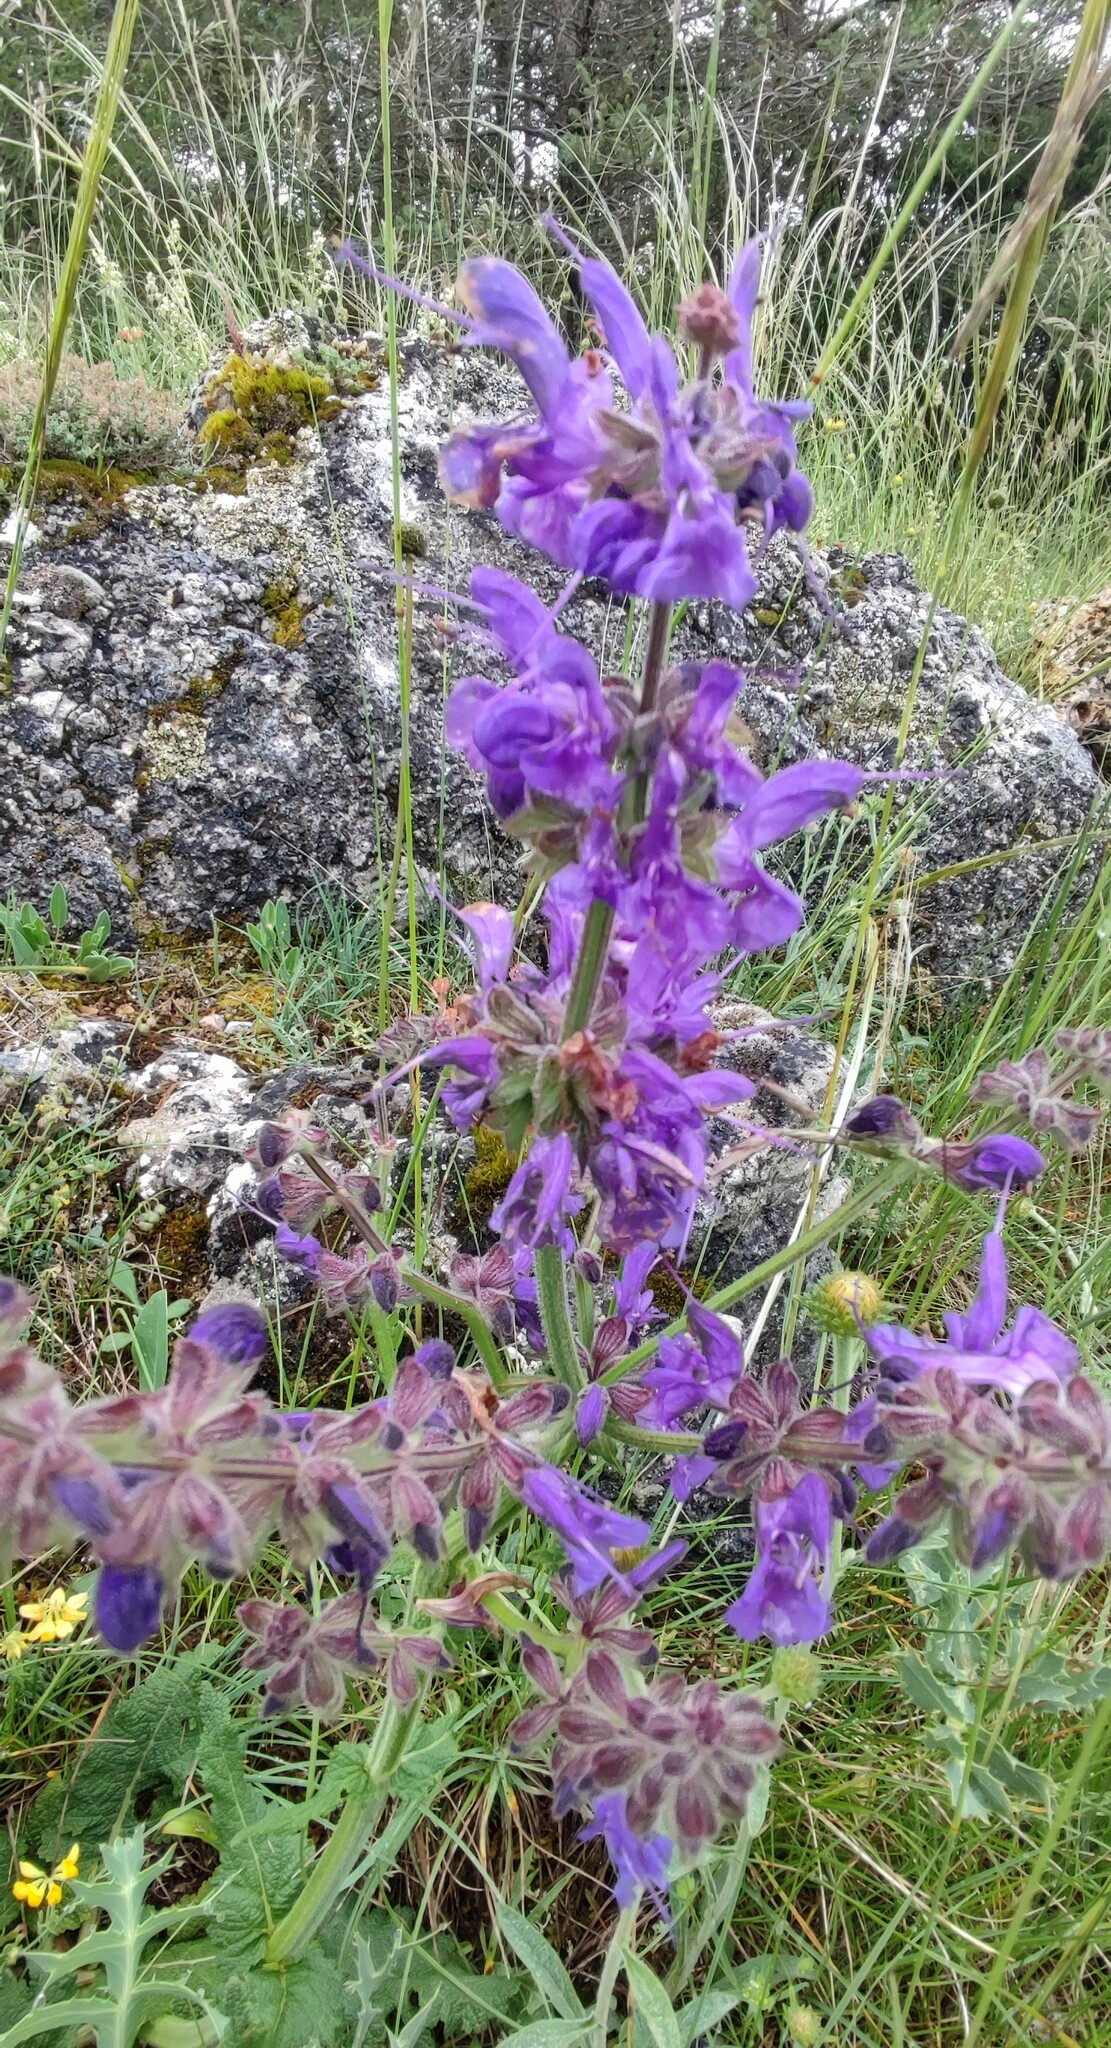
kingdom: Plantae
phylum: Tracheophyta
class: Magnoliopsida
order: Lamiales
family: Lamiaceae
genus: Salvia
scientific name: Salvia pratensis
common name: Meadow sage
